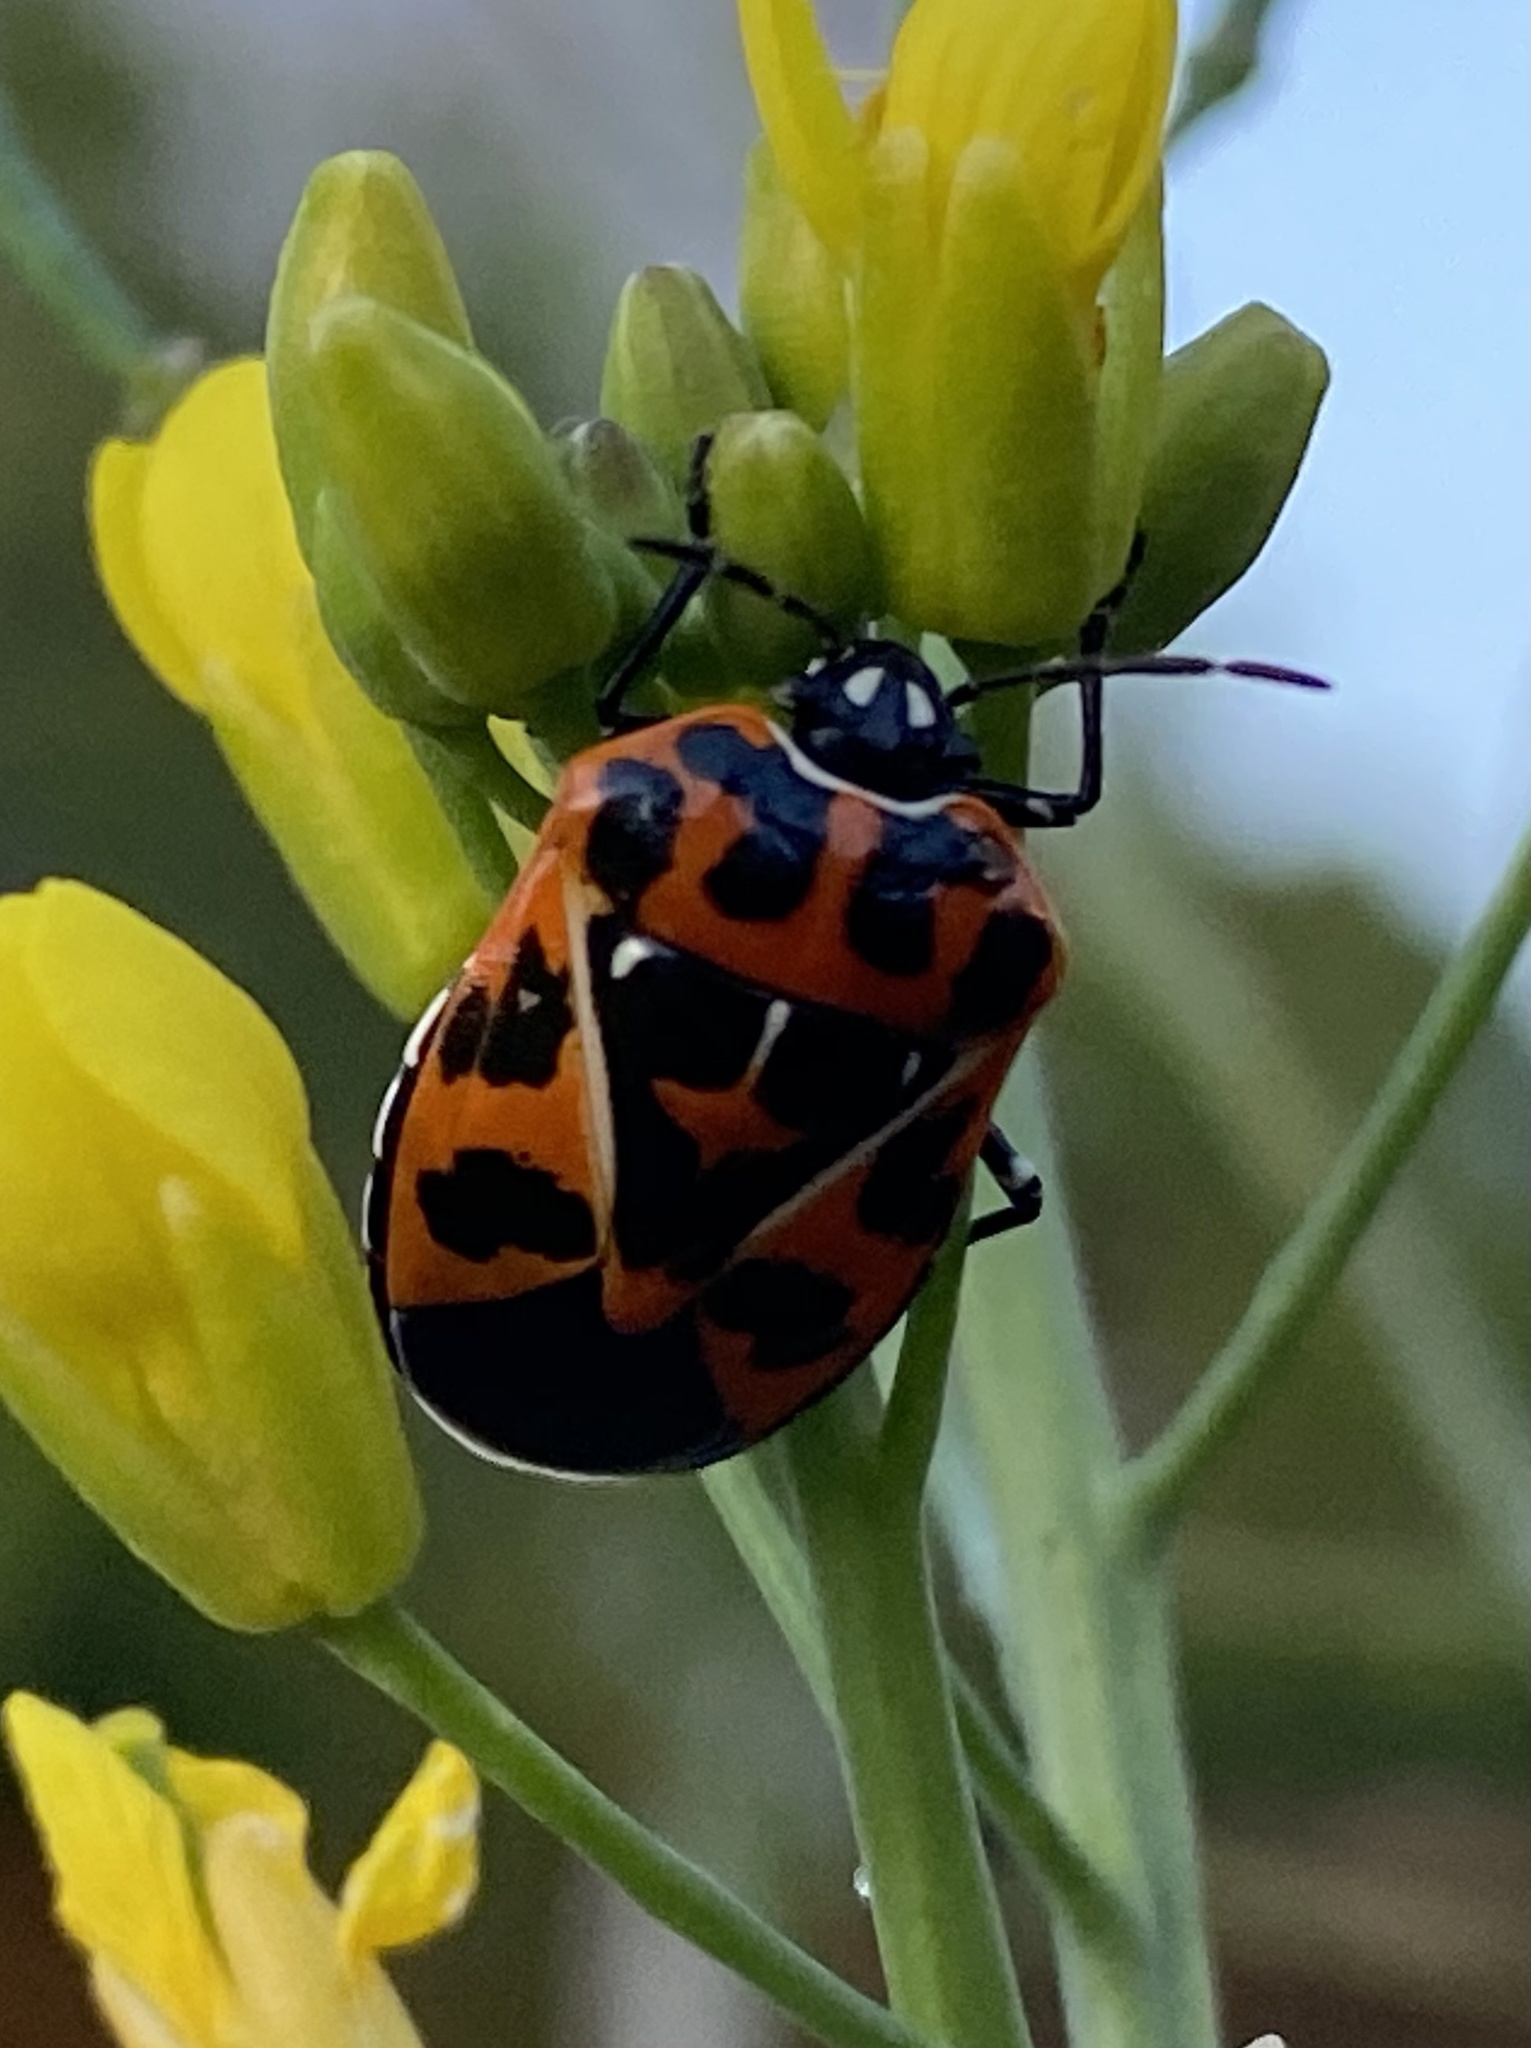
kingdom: Animalia
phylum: Arthropoda
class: Insecta
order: Hemiptera
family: Pentatomidae
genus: Murgantia
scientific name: Murgantia histrionica
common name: Harlequin bug
